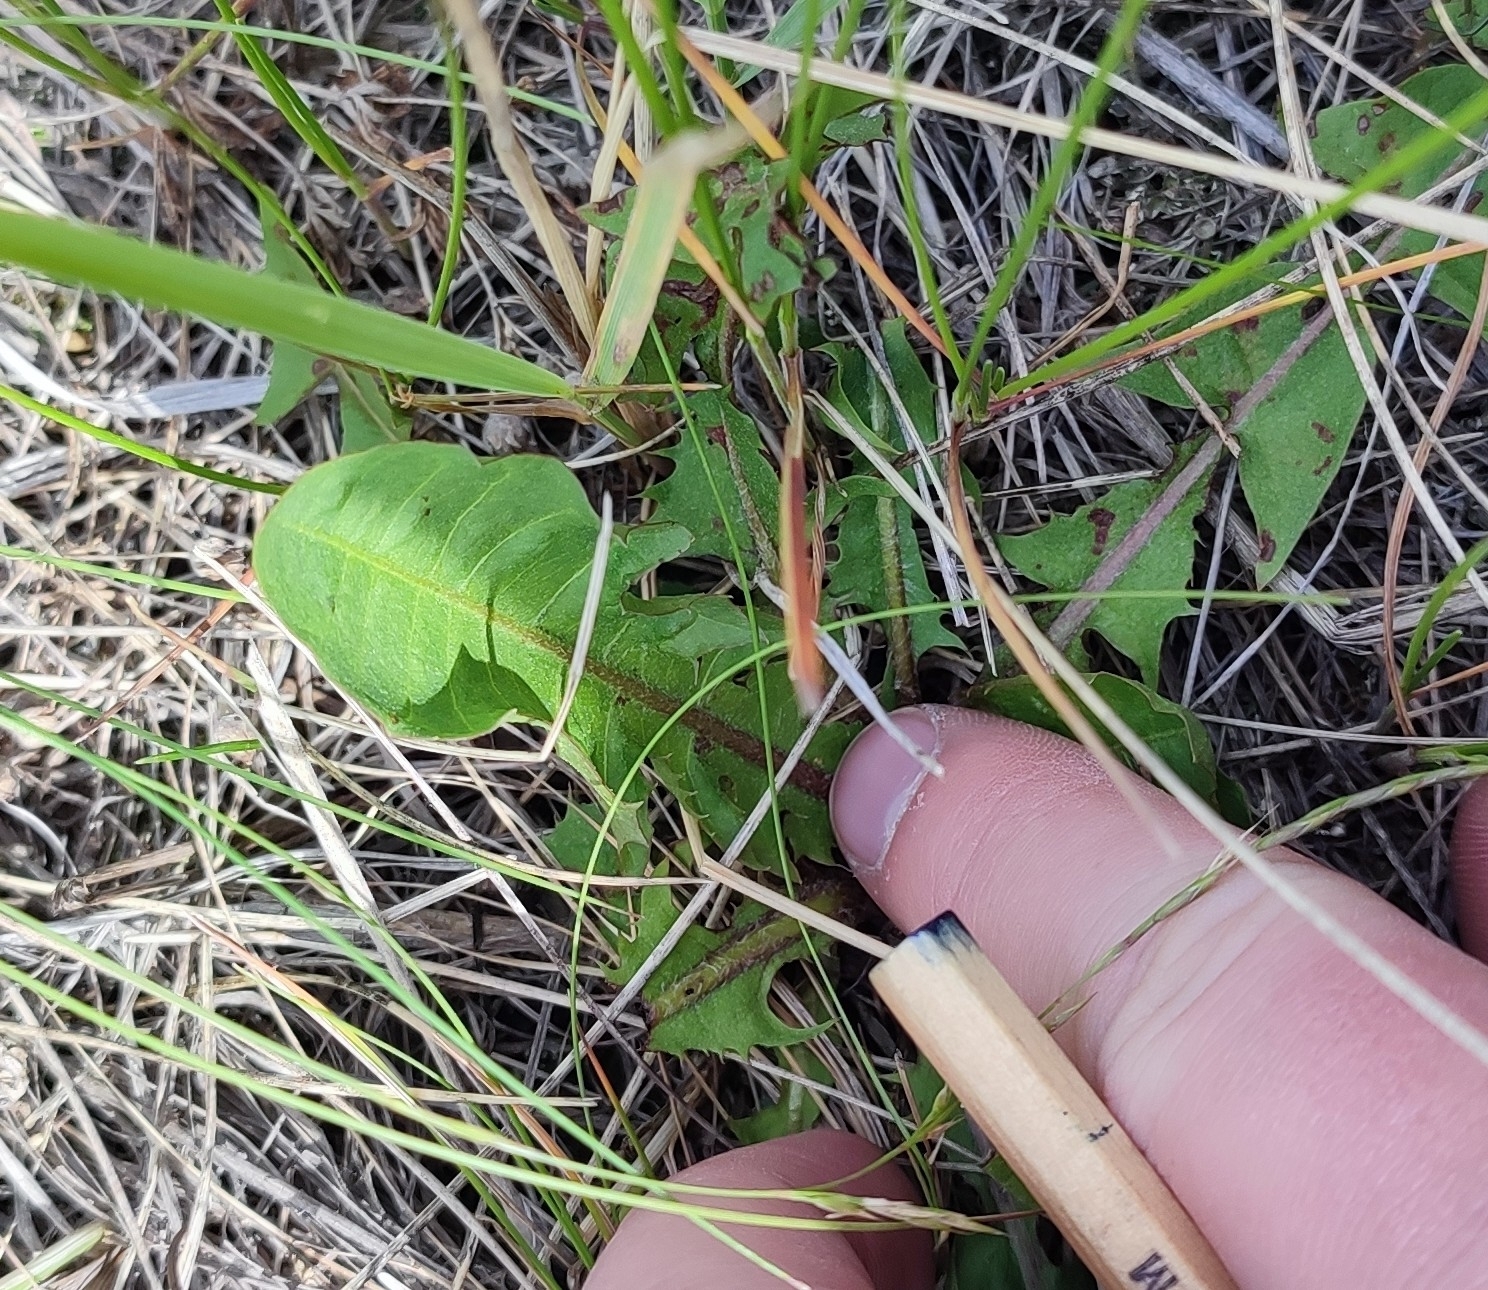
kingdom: Plantae
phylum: Tracheophyta
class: Magnoliopsida
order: Asterales
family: Asteraceae
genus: Taraxacum
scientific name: Taraxacum officinale
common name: Common dandelion
